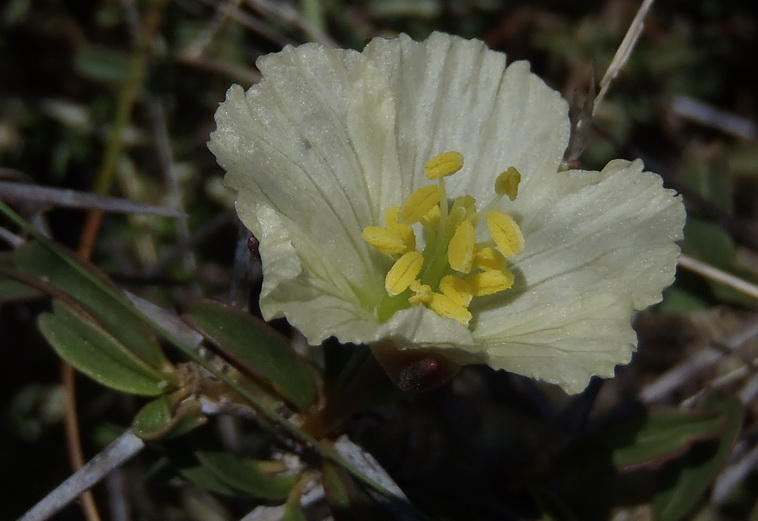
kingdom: Plantae
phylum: Tracheophyta
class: Magnoliopsida
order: Geraniales
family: Geraniaceae
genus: Monsonia
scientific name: Monsonia camdeboensis
